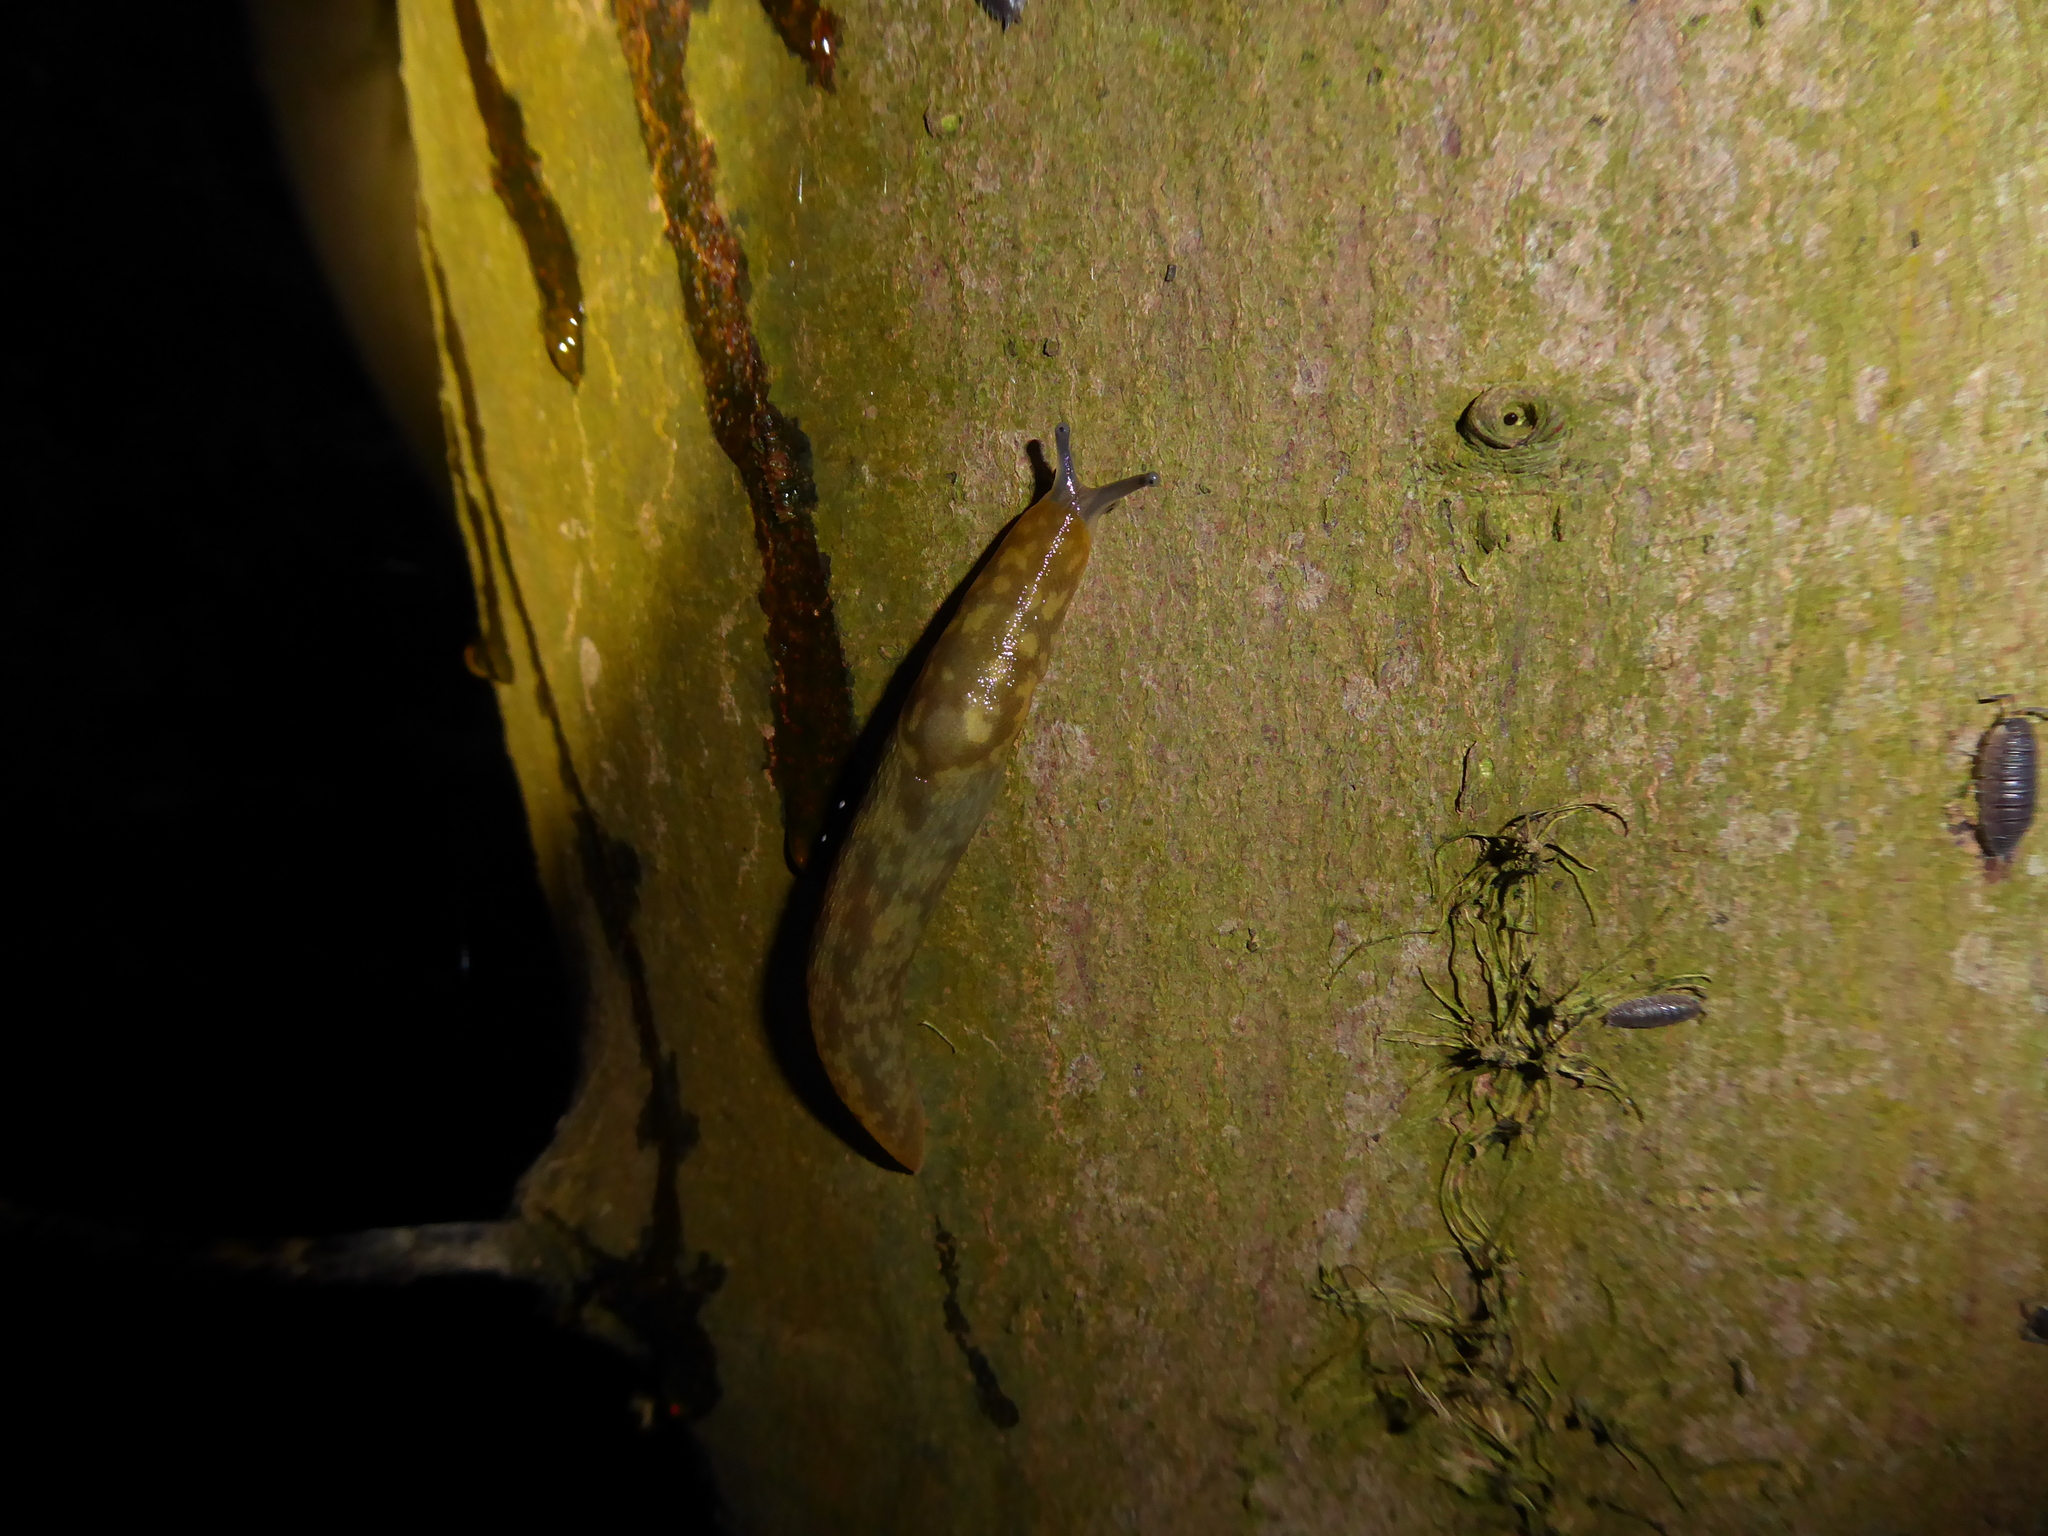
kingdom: Animalia
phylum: Mollusca
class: Gastropoda
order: Stylommatophora
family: Limacidae
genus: Limacus
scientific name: Limacus maculatus
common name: Irish yellow slug
